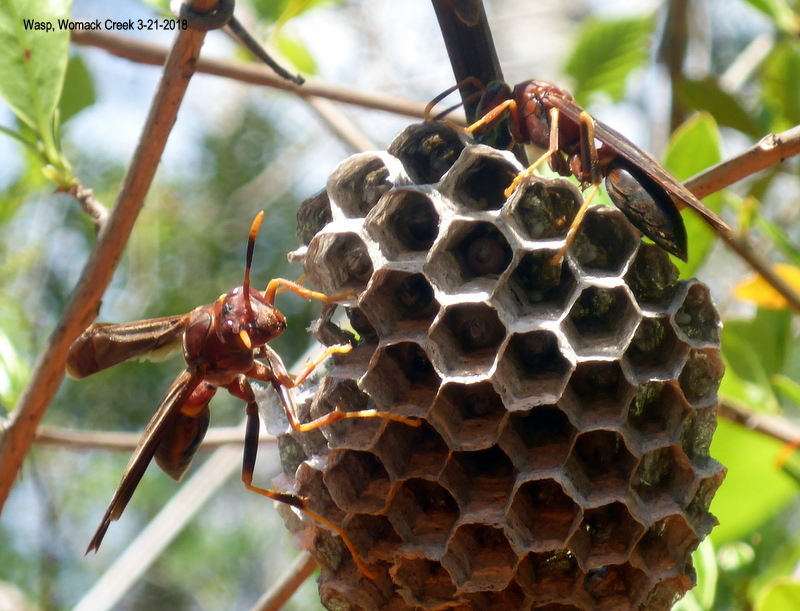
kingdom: Animalia
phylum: Arthropoda
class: Insecta
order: Hymenoptera
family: Eumenidae
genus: Polistes
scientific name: Polistes annularis
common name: Ringed paper wasp
